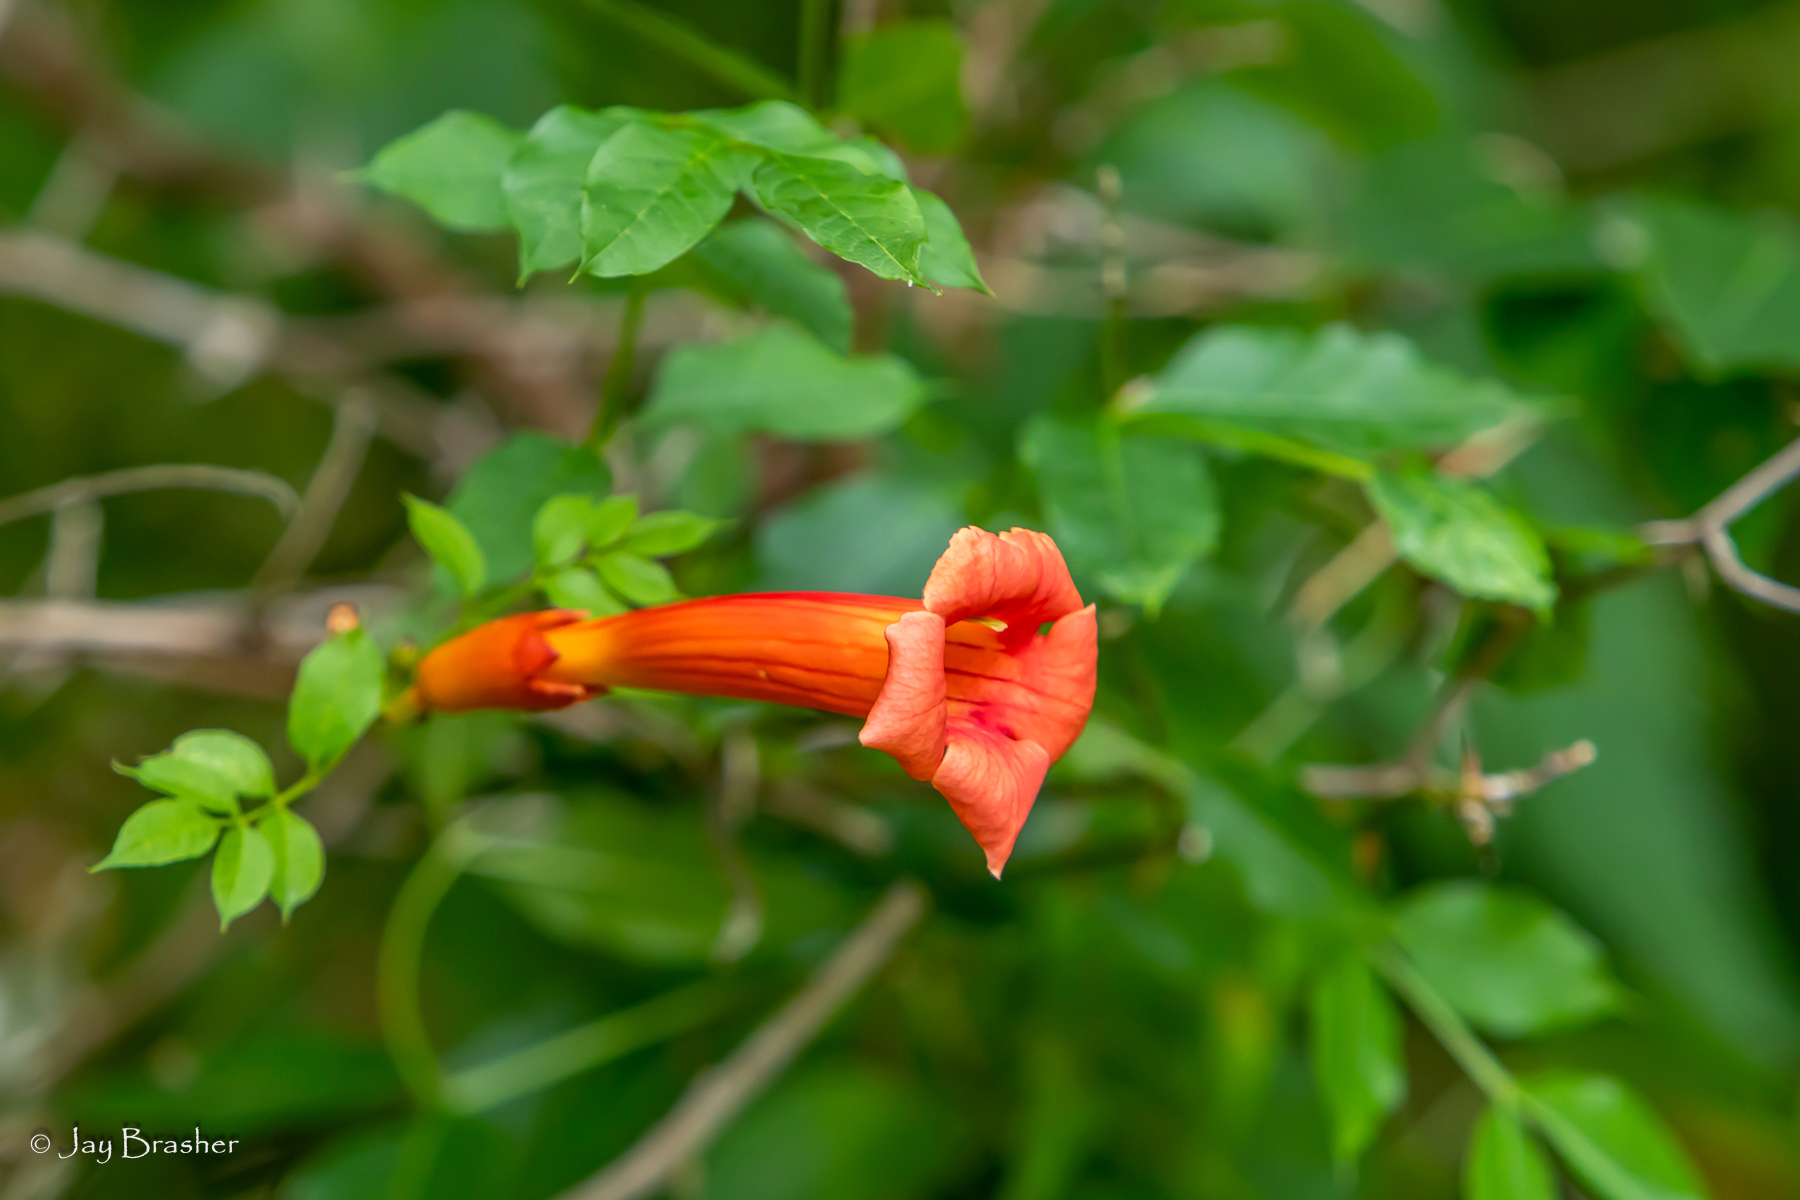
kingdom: Plantae
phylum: Tracheophyta
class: Magnoliopsida
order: Lamiales
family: Bignoniaceae
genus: Campsis
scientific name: Campsis radicans
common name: Trumpet-creeper
